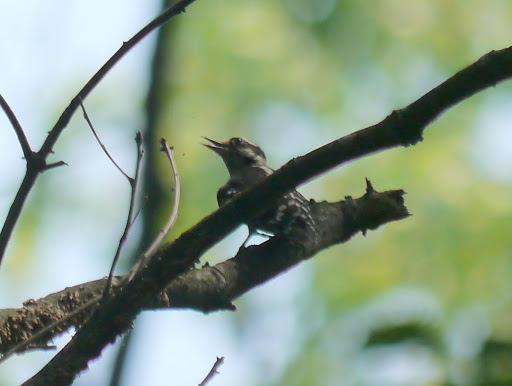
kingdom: Animalia
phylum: Chordata
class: Aves
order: Piciformes
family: Picidae
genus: Leuconotopicus
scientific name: Leuconotopicus villosus
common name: Hairy woodpecker
